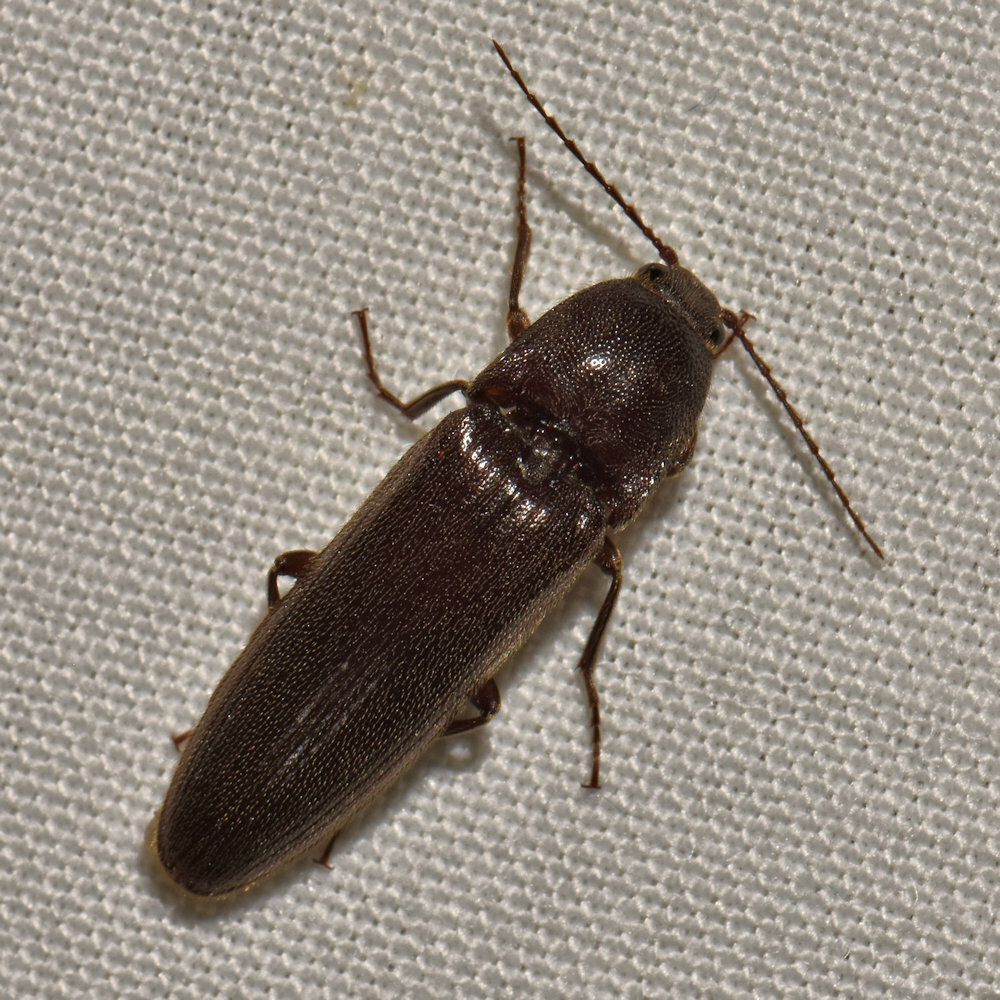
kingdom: Animalia
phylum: Arthropoda
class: Insecta
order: Coleoptera
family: Elateridae
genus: Melanotus
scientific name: Melanotus castanipes
